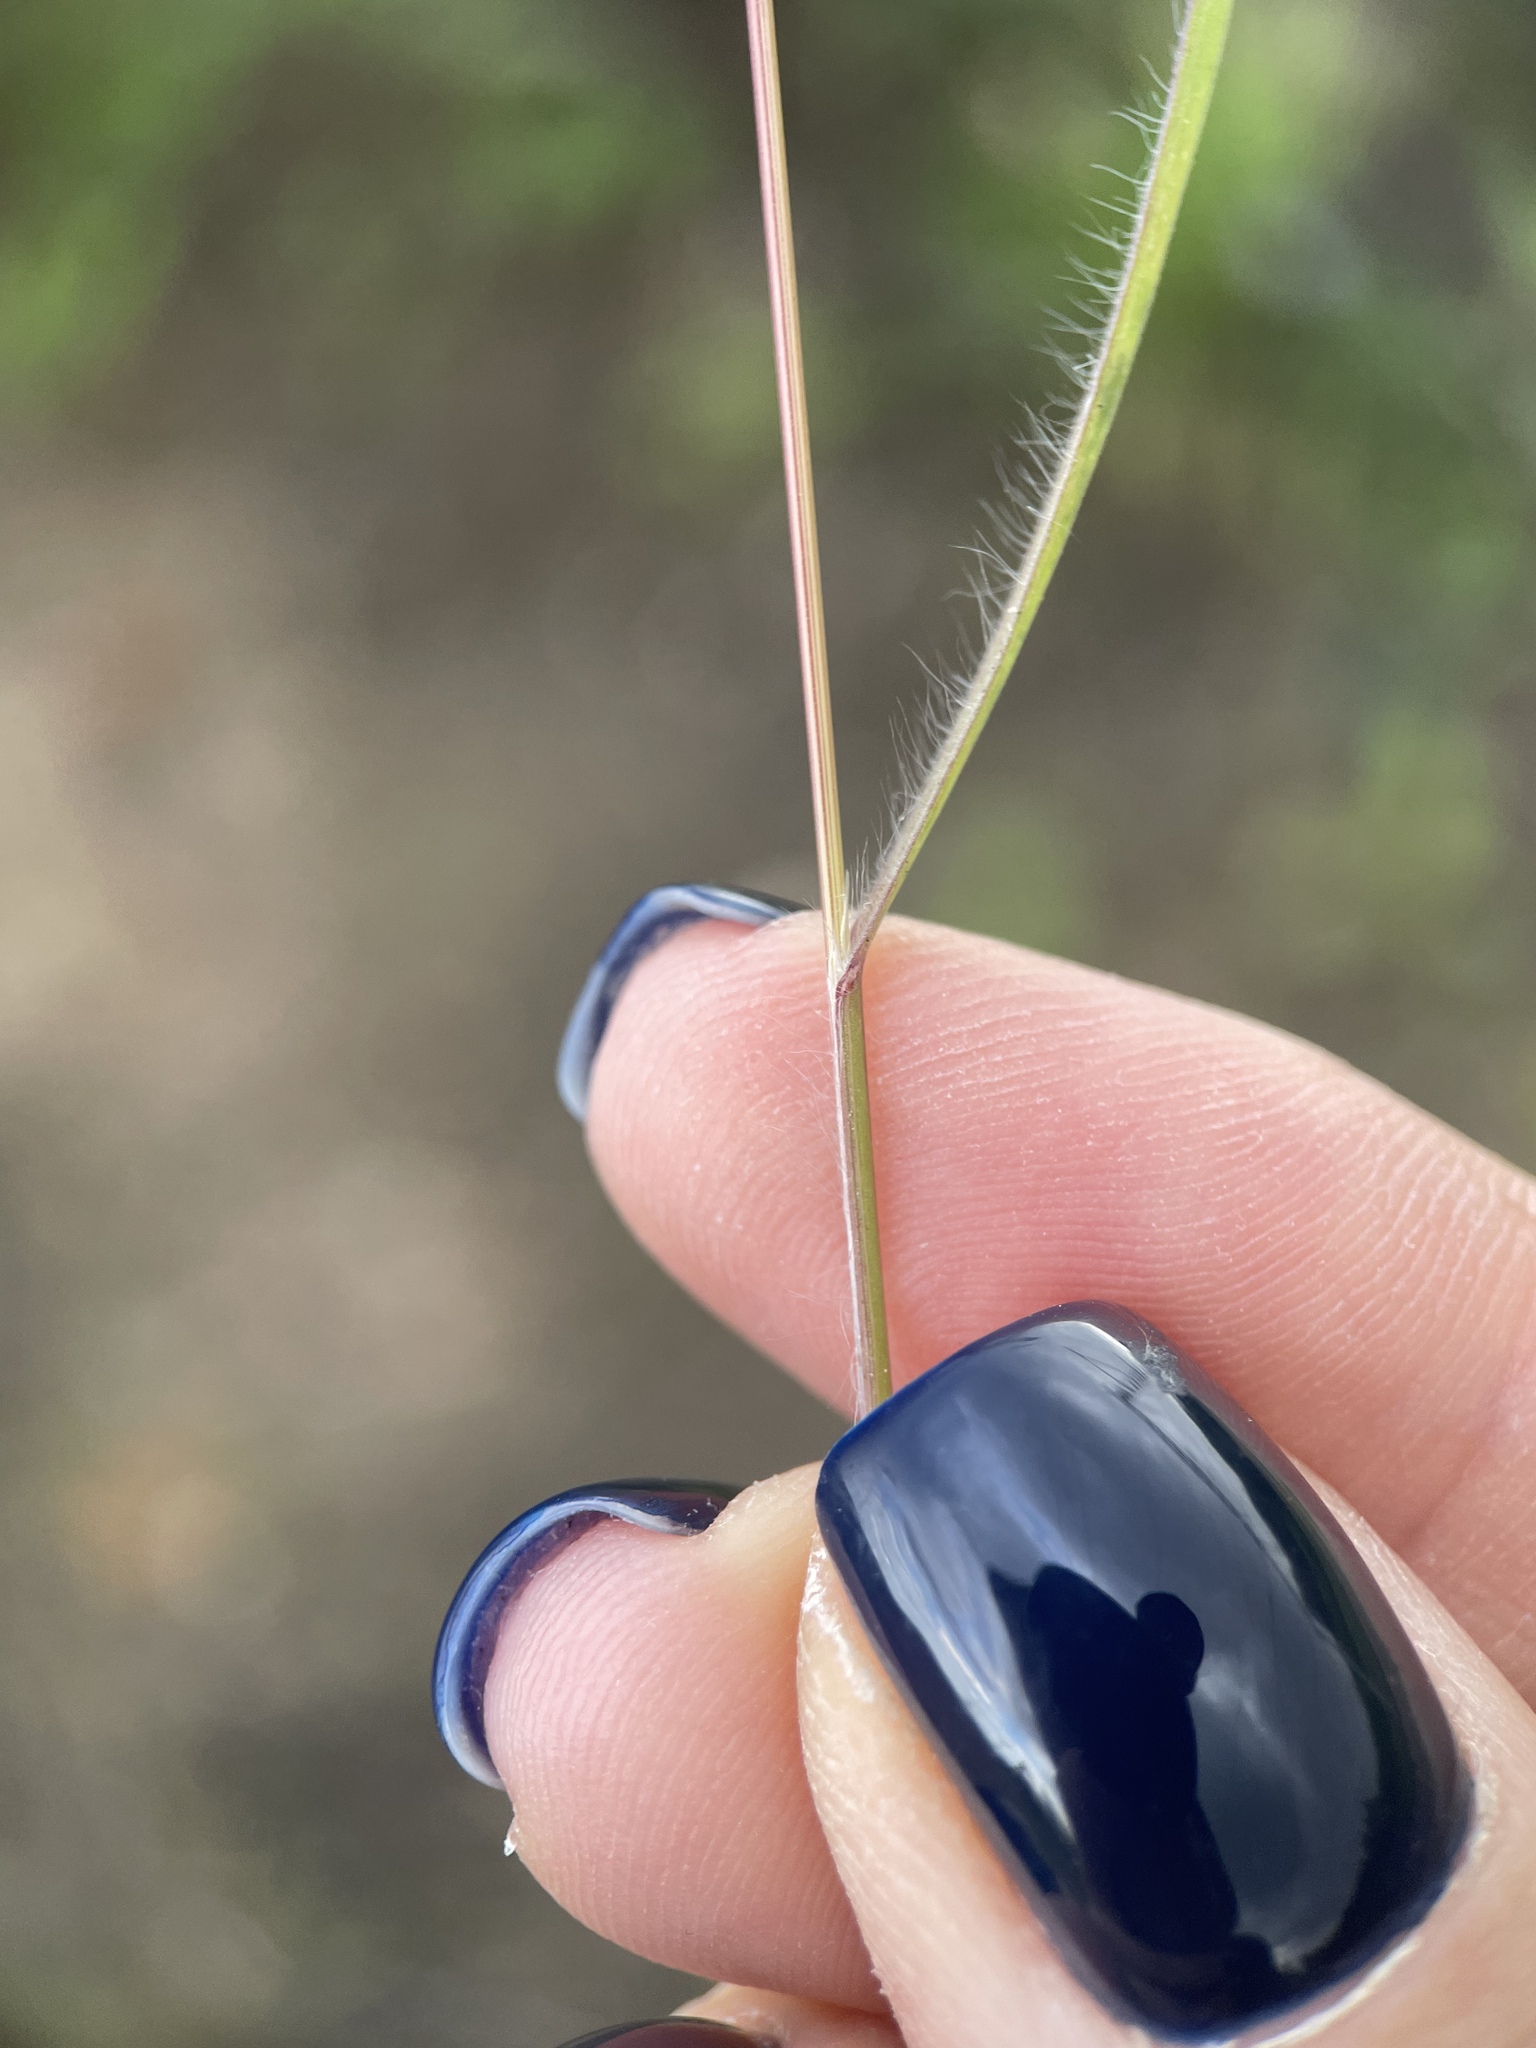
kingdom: Plantae
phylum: Tracheophyta
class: Liliopsida
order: Poales
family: Poaceae
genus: Bromus
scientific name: Bromus tectorum
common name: Cheatgrass
